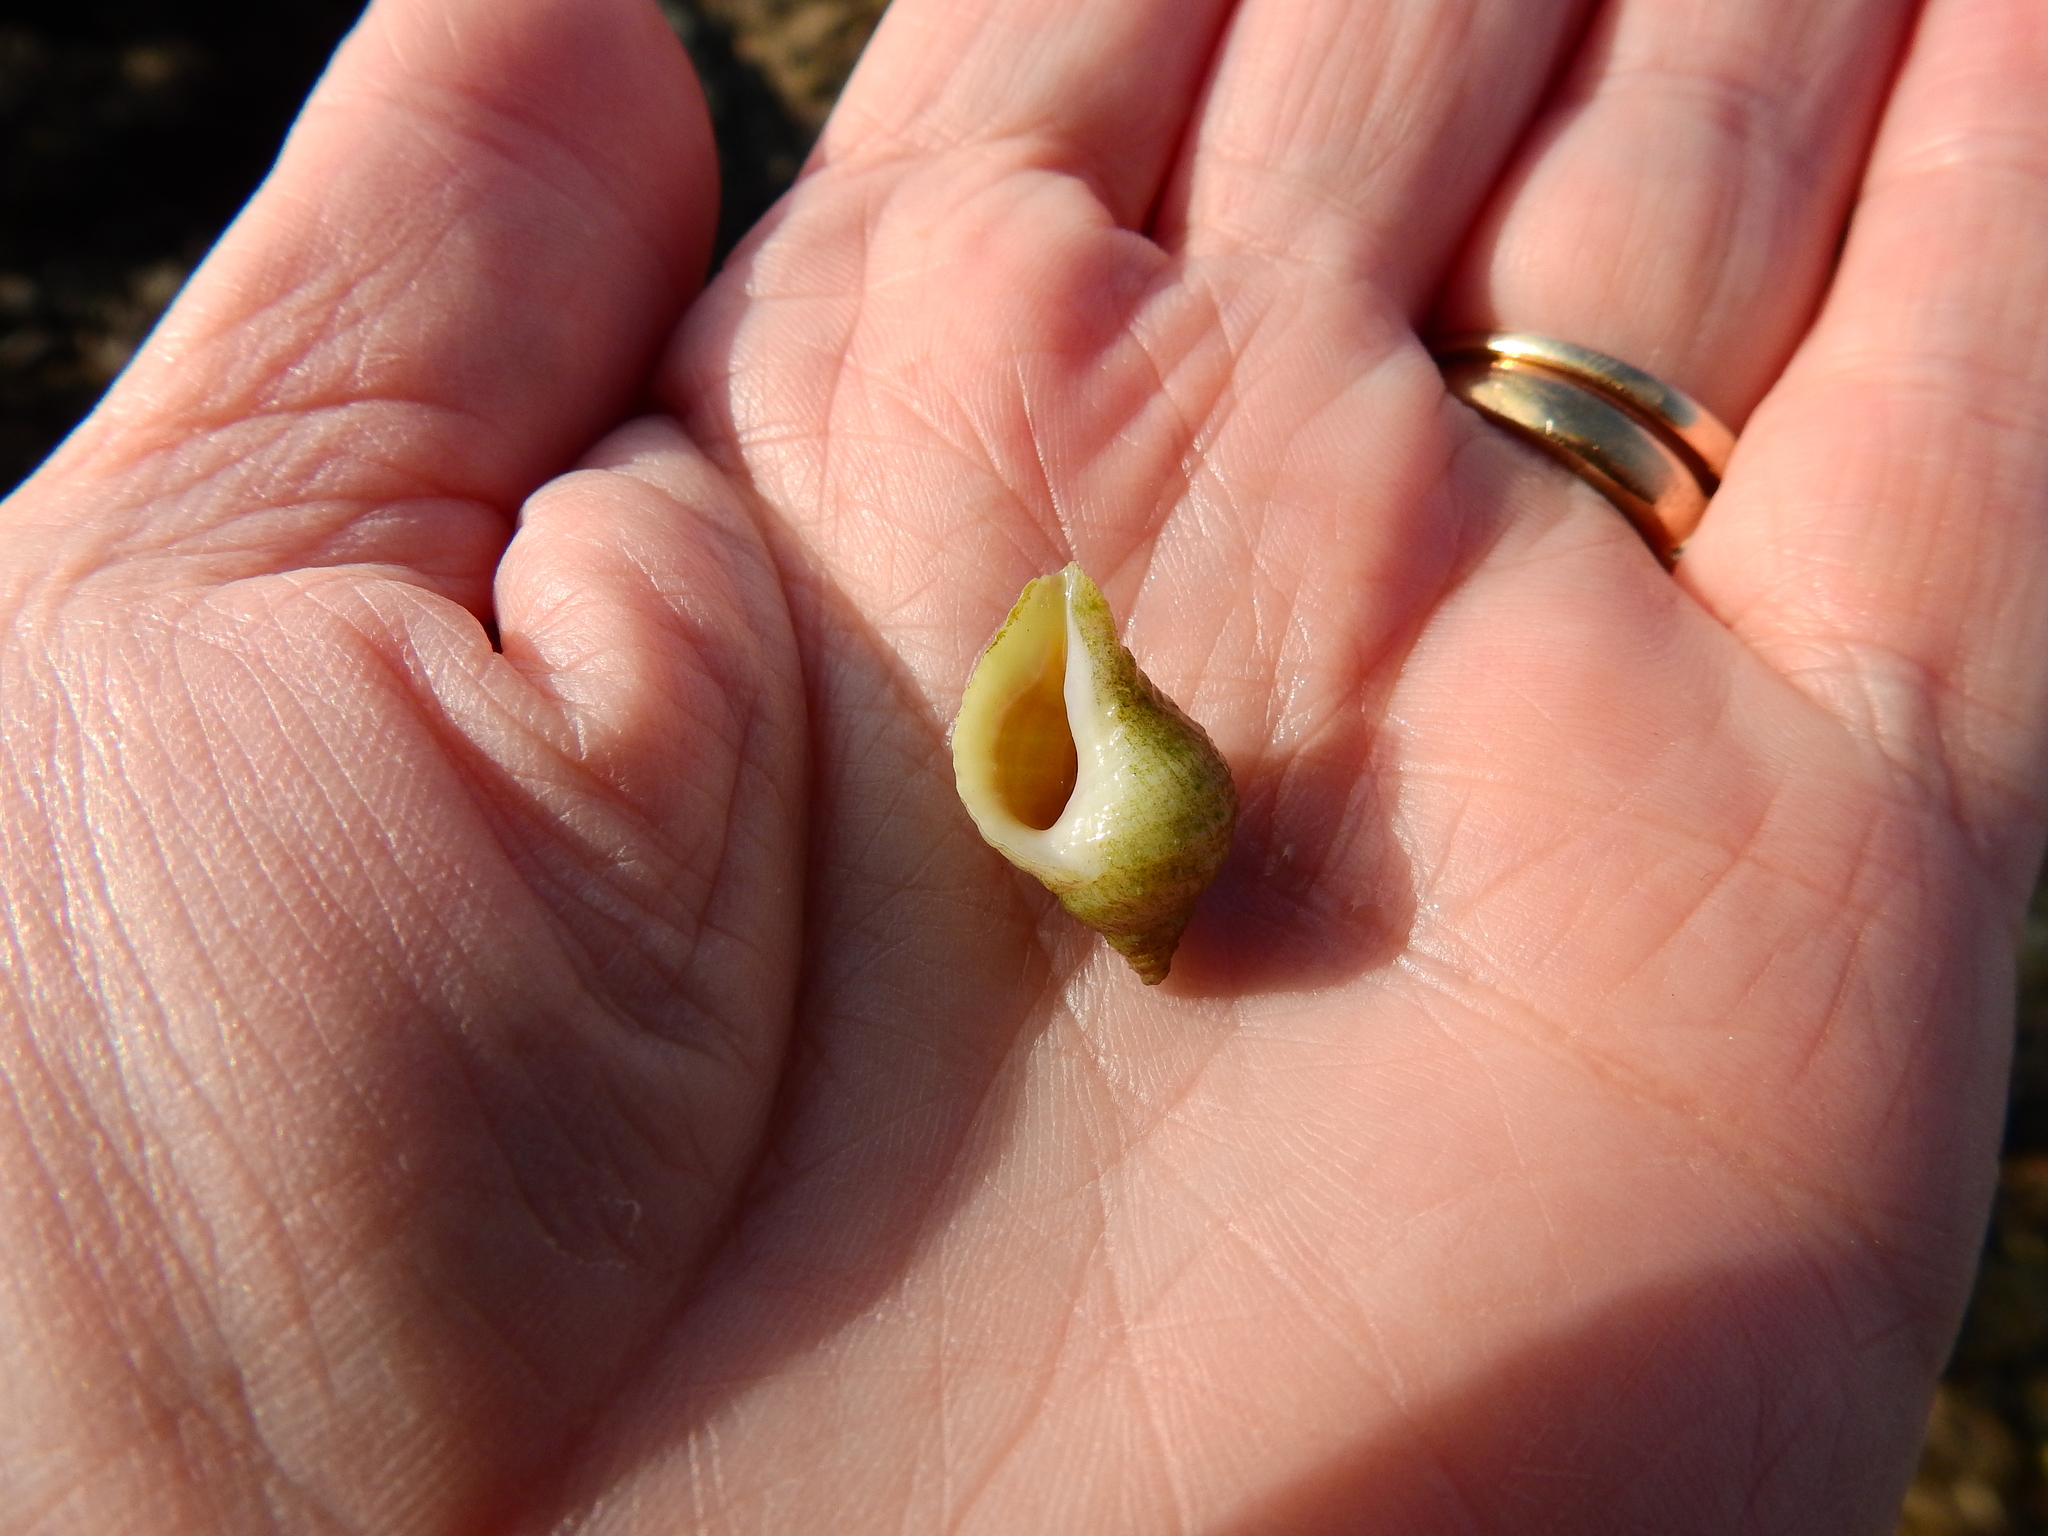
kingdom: Animalia
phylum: Mollusca
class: Gastropoda
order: Neogastropoda
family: Muricidae
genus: Nucella
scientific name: Nucella lapillus
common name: Dog whelk
